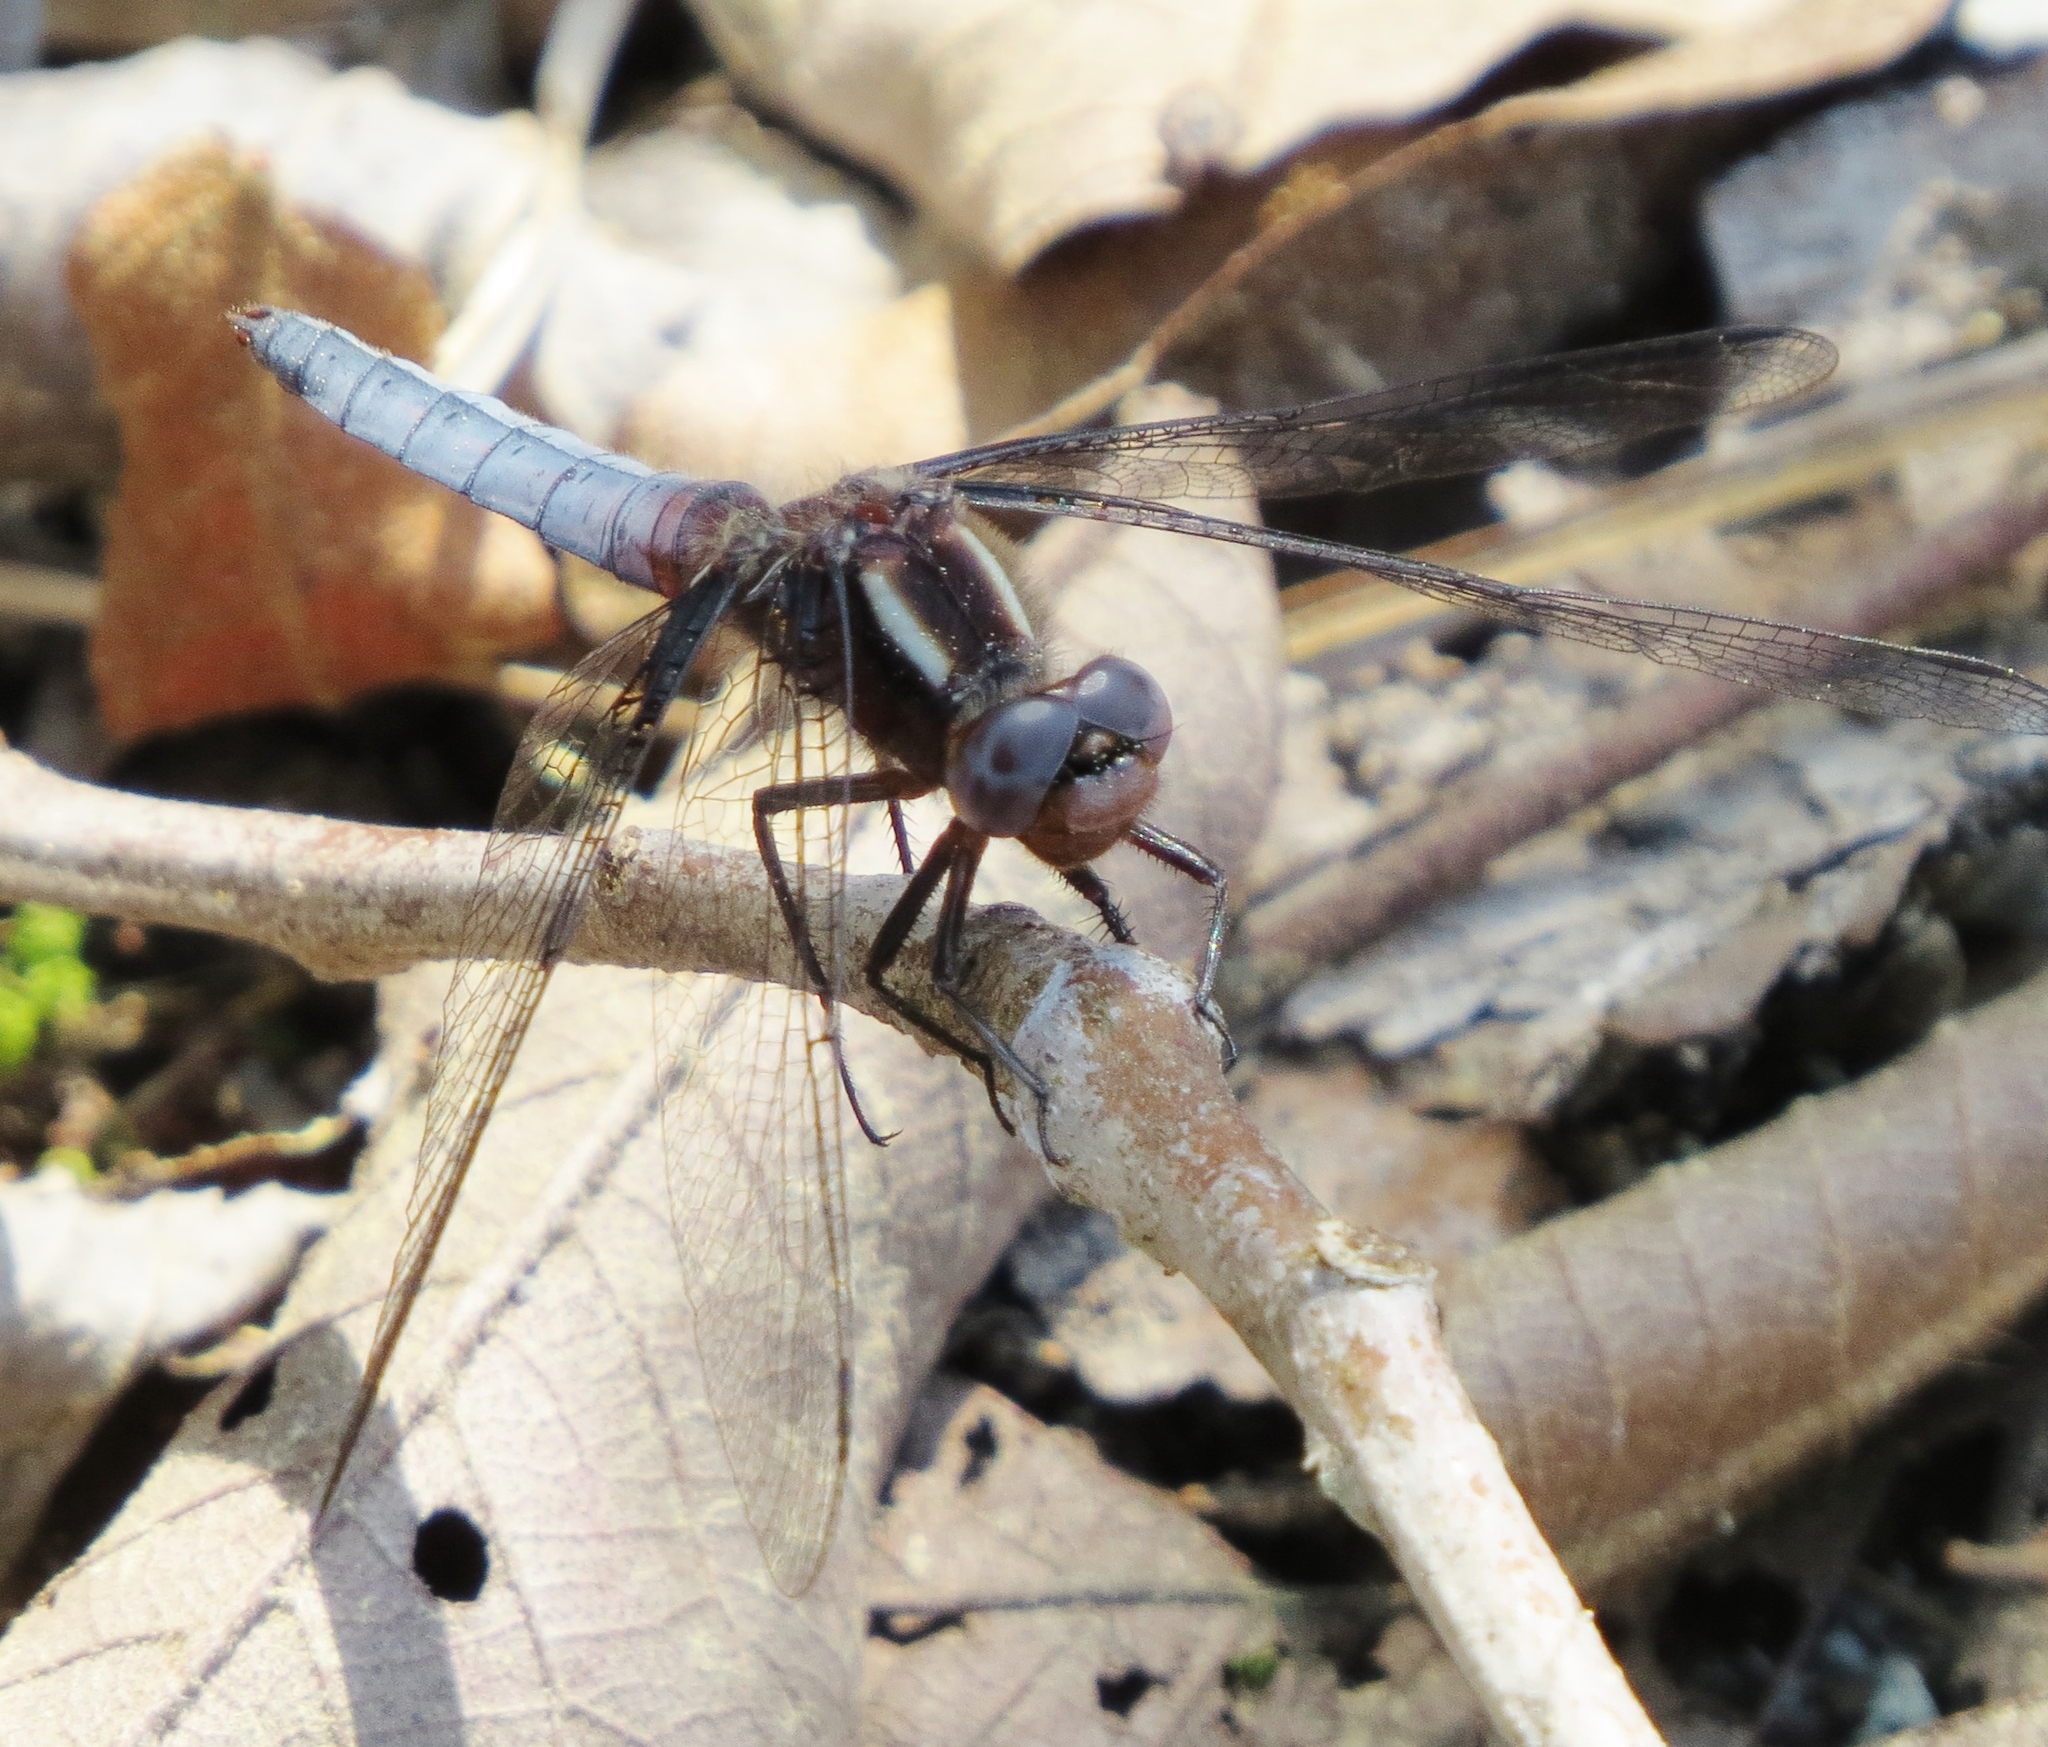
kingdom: Animalia
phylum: Arthropoda
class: Insecta
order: Odonata
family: Libellulidae
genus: Ladona
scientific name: Ladona deplanata
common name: Blue corporal
